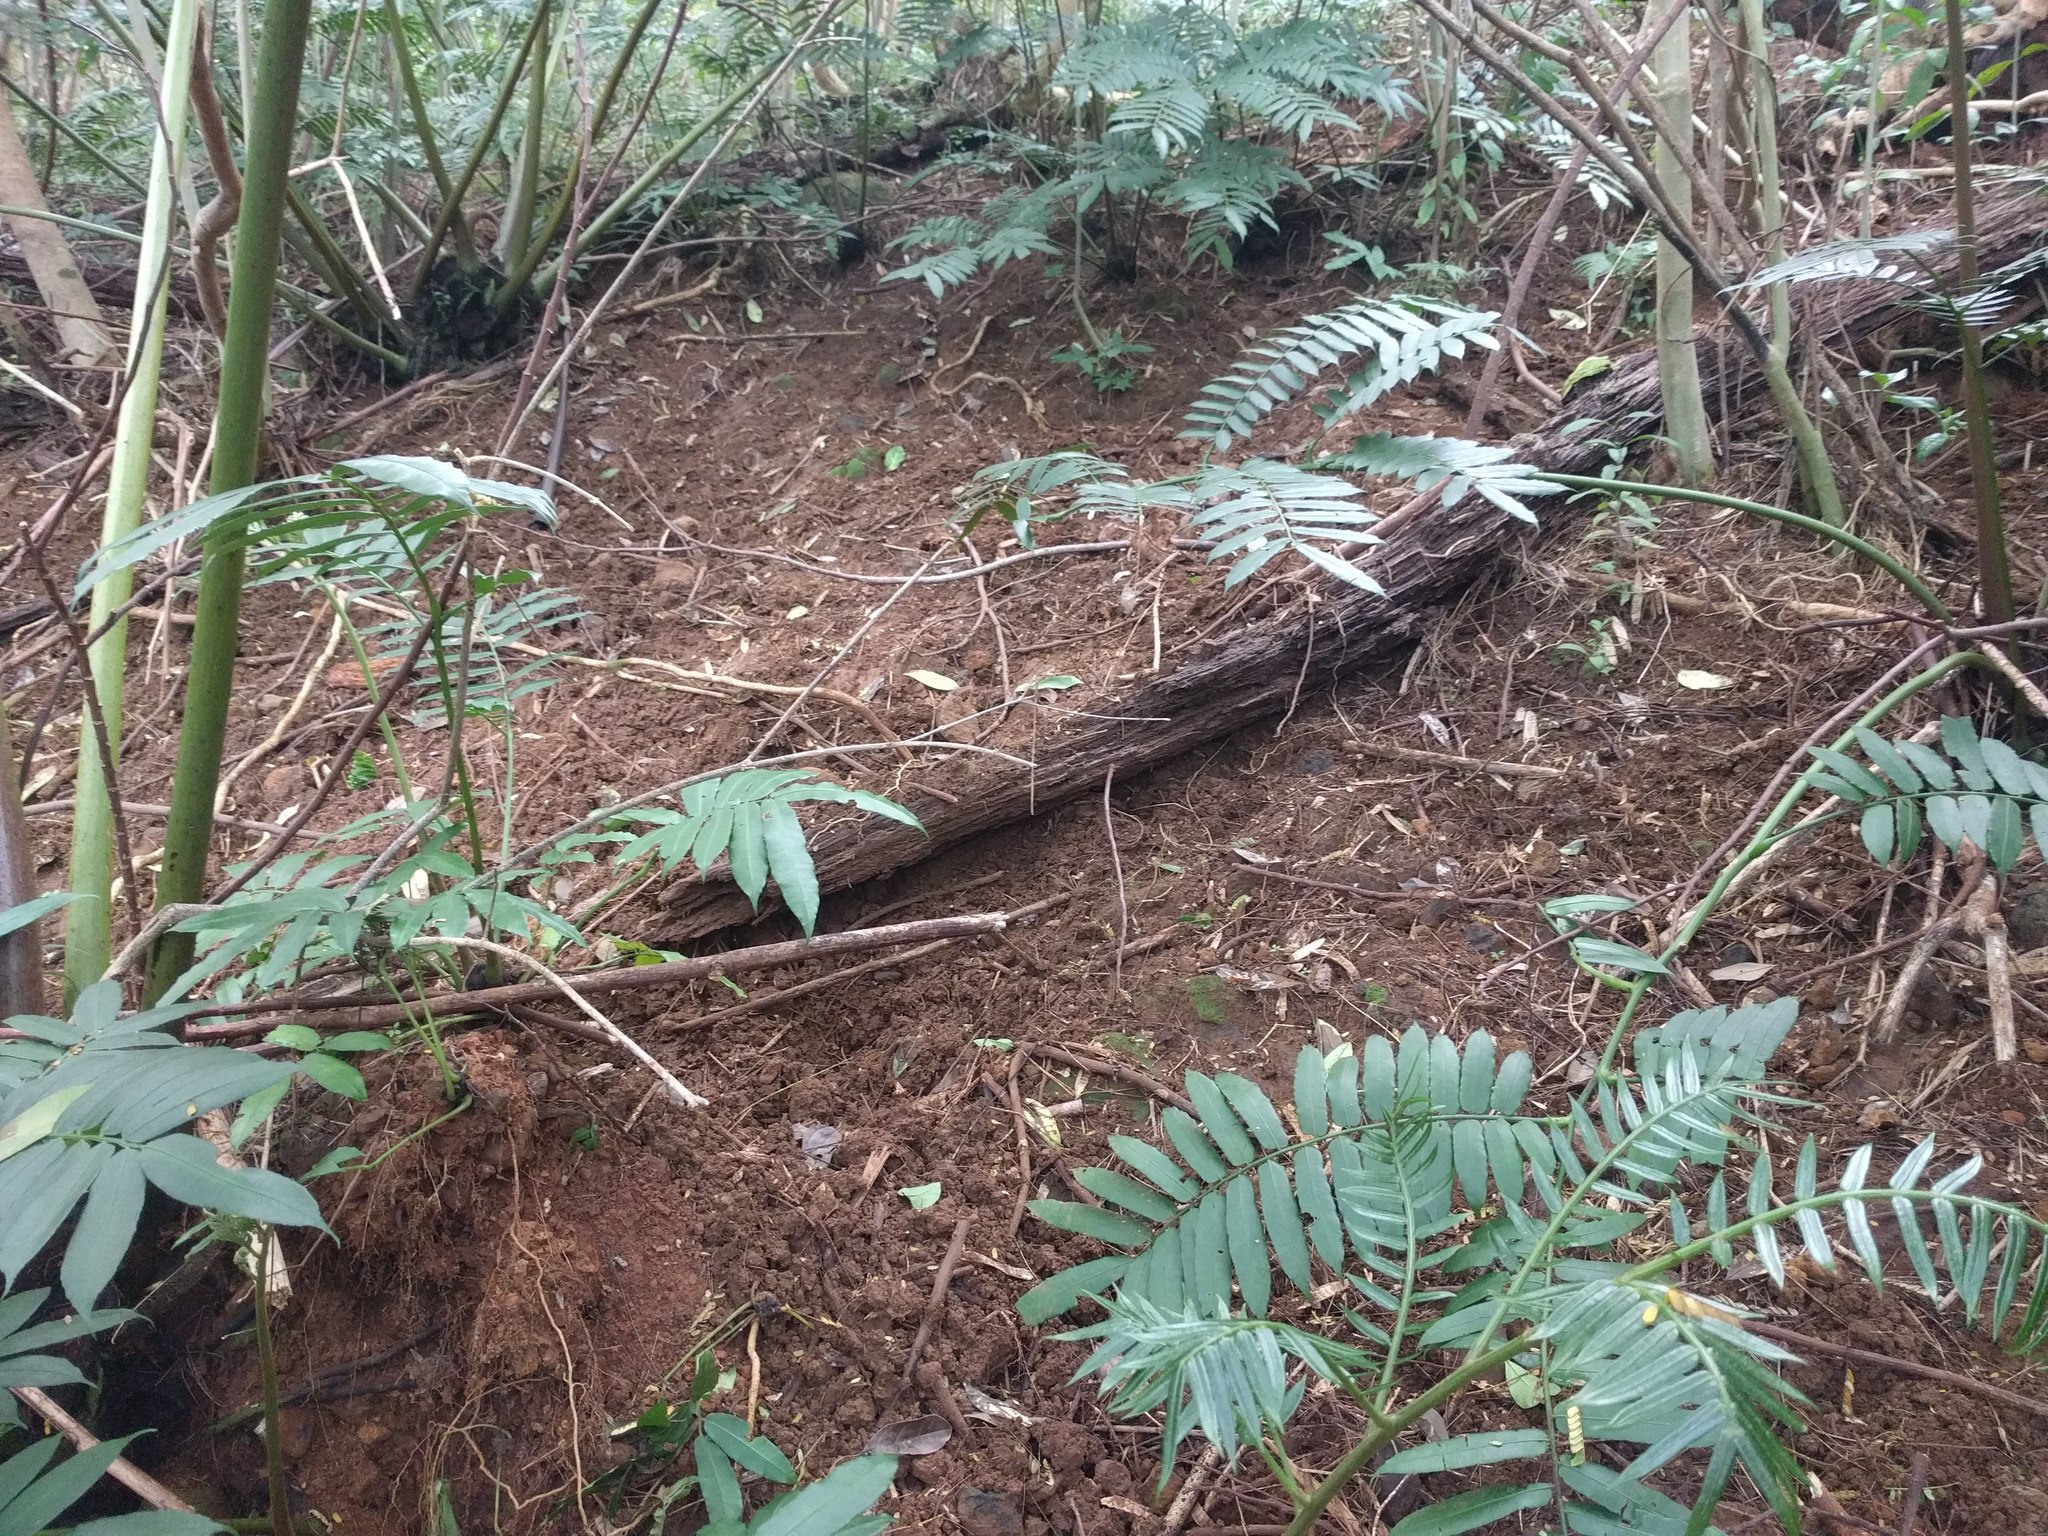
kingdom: Animalia
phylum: Chordata
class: Mammalia
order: Artiodactyla
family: Suidae
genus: Sus
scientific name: Sus scrofa
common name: Wild boar
